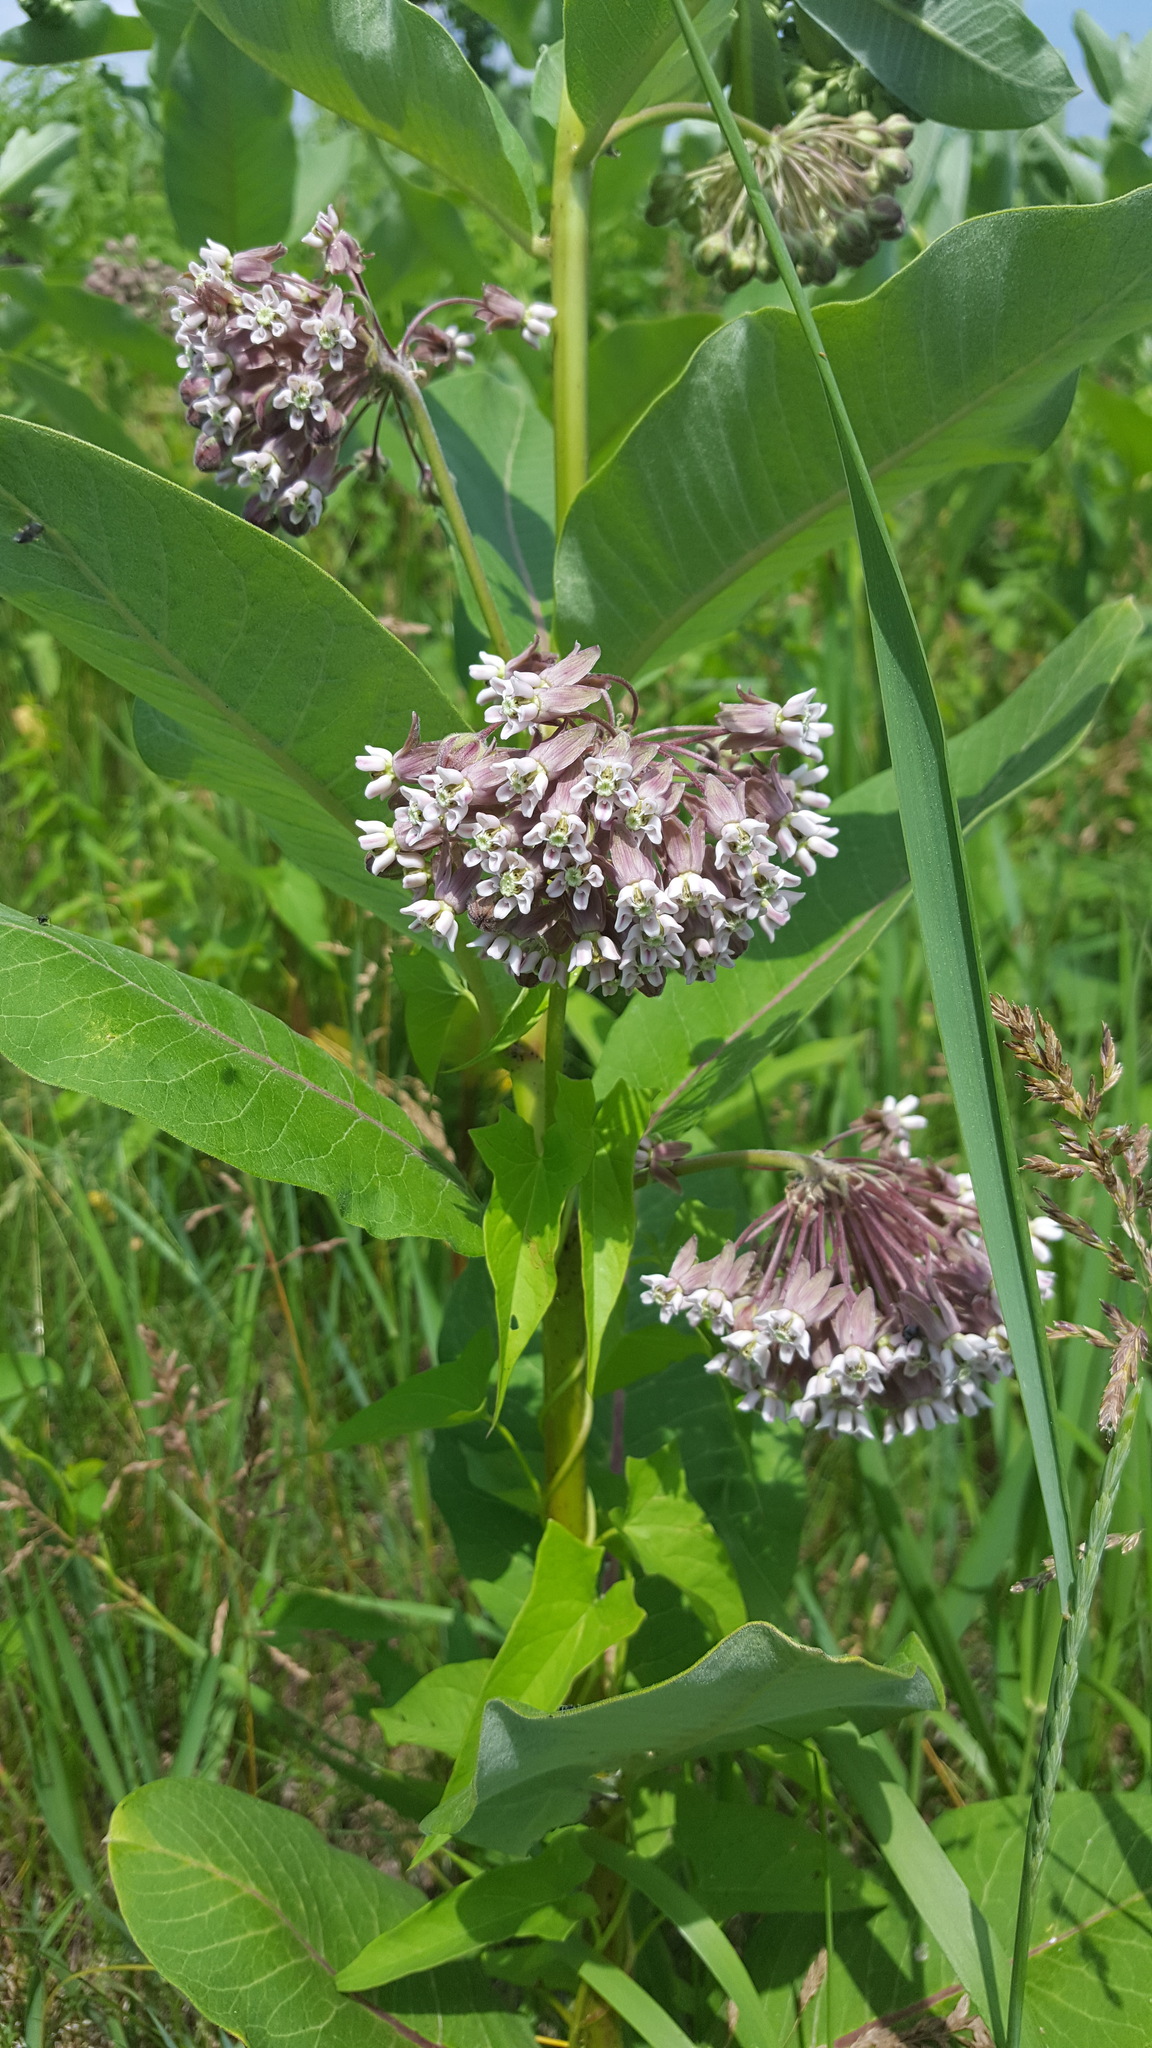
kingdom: Plantae
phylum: Tracheophyta
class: Magnoliopsida
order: Gentianales
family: Apocynaceae
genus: Asclepias
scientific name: Asclepias syriaca
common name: Common milkweed
